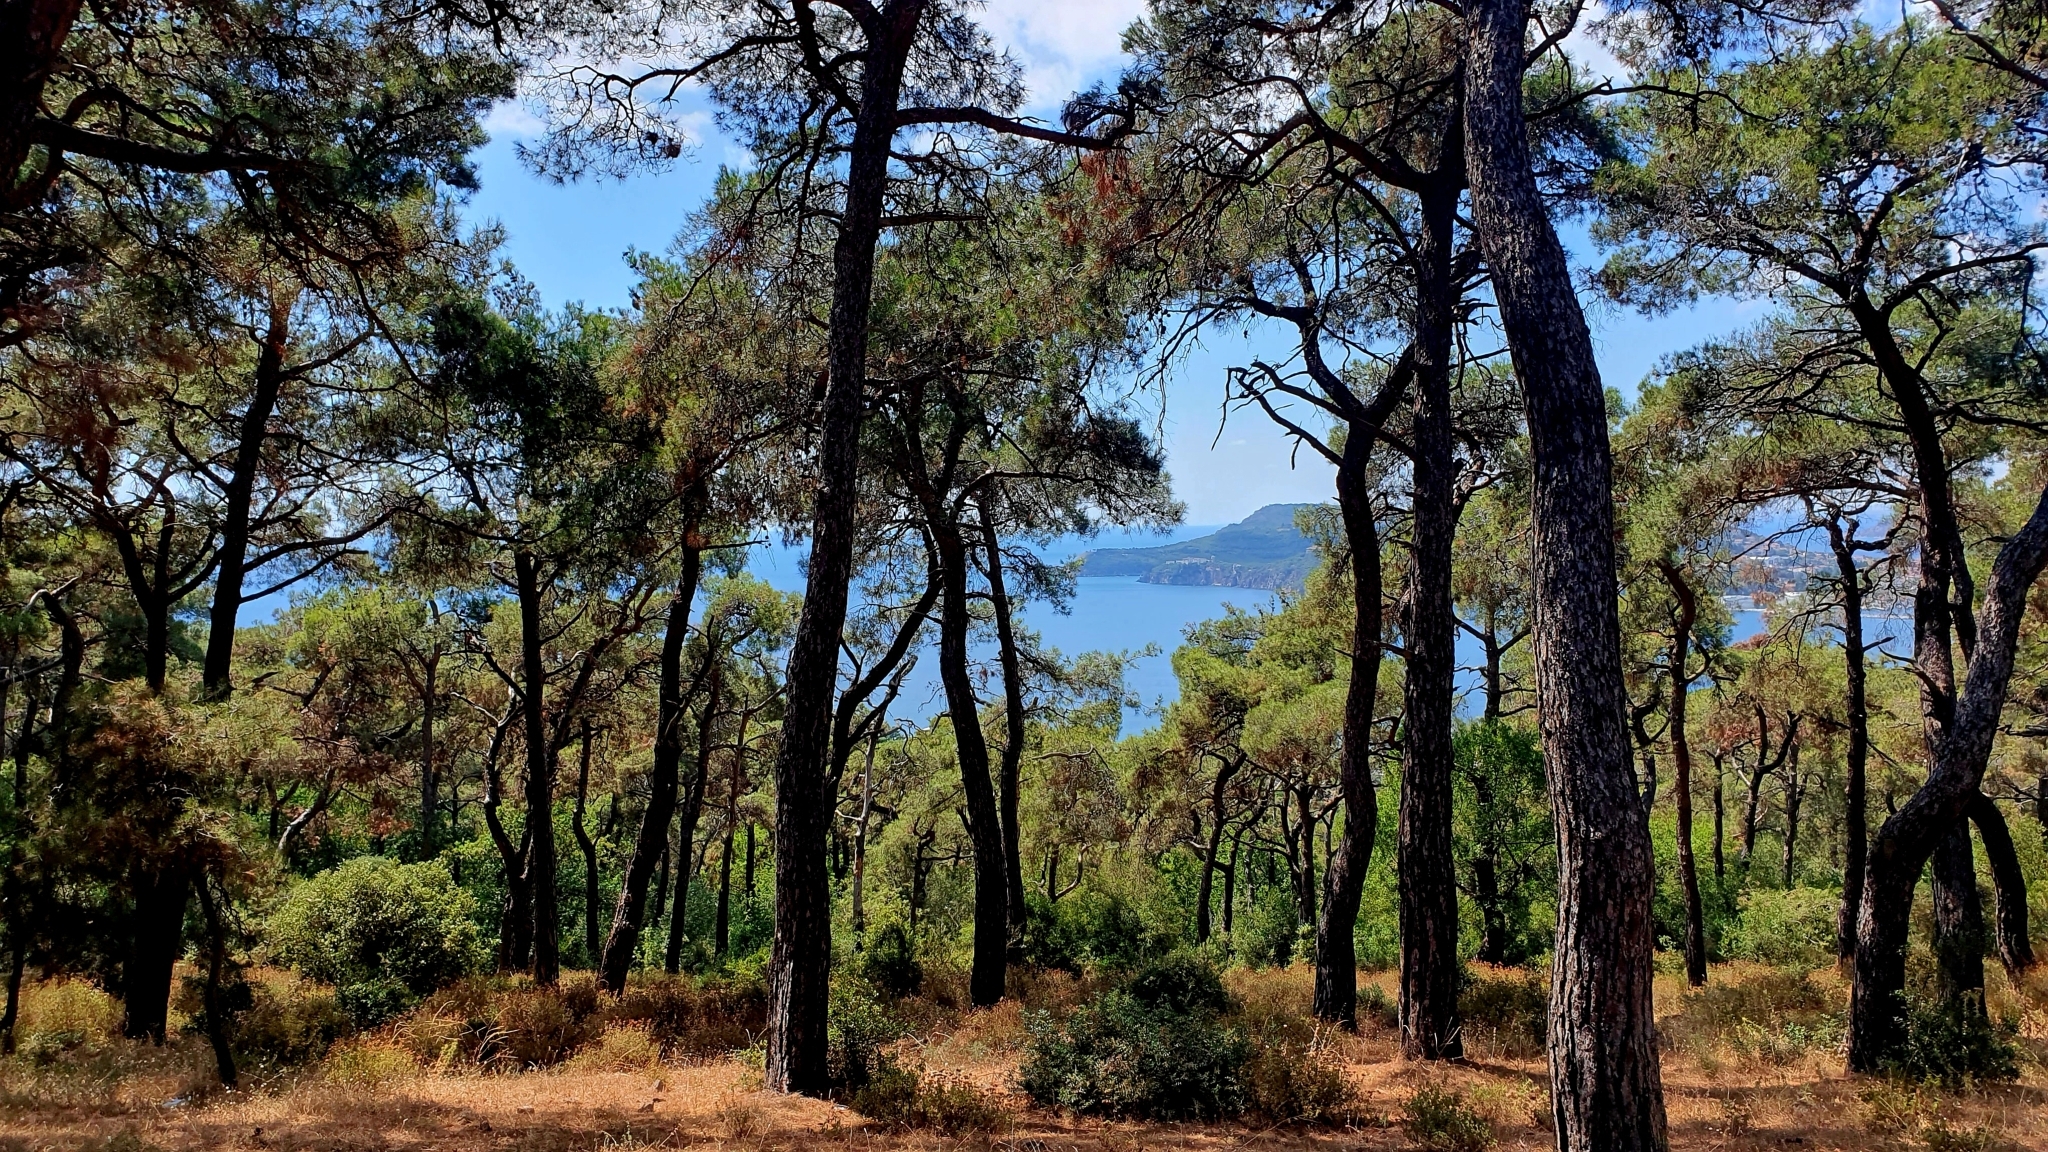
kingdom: Plantae
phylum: Tracheophyta
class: Pinopsida
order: Pinales
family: Pinaceae
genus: Pinus
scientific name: Pinus brutia
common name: Turkish pine
